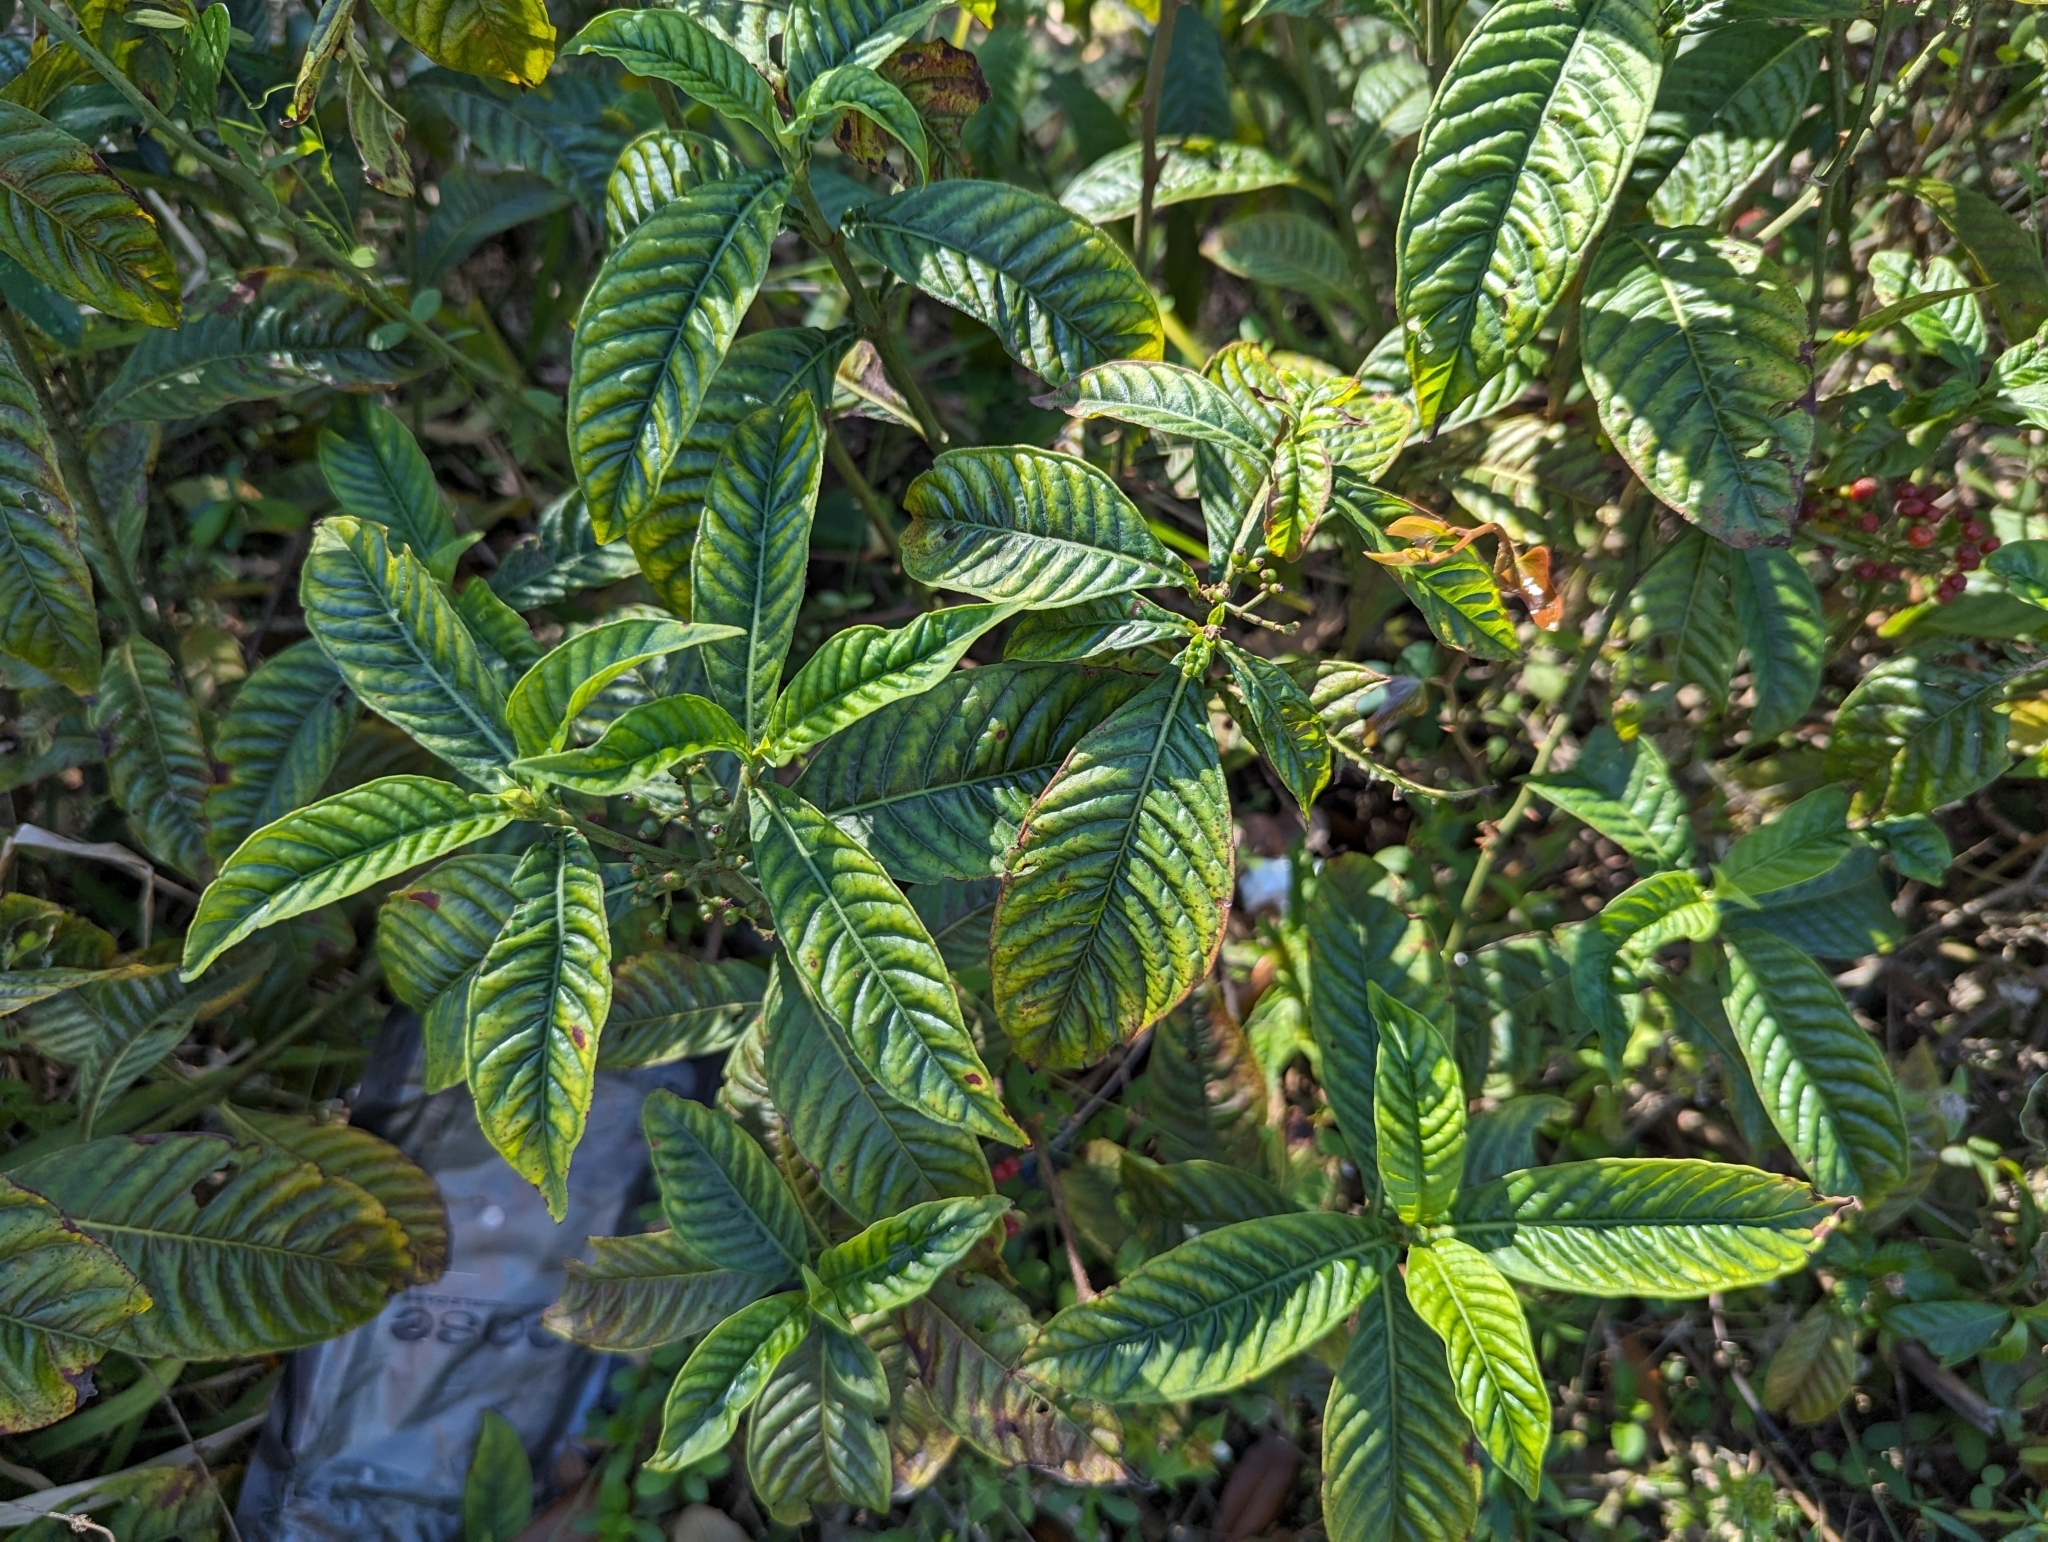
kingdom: Plantae
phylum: Tracheophyta
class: Magnoliopsida
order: Gentianales
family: Rubiaceae
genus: Psychotria
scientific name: Psychotria tenuifolia
